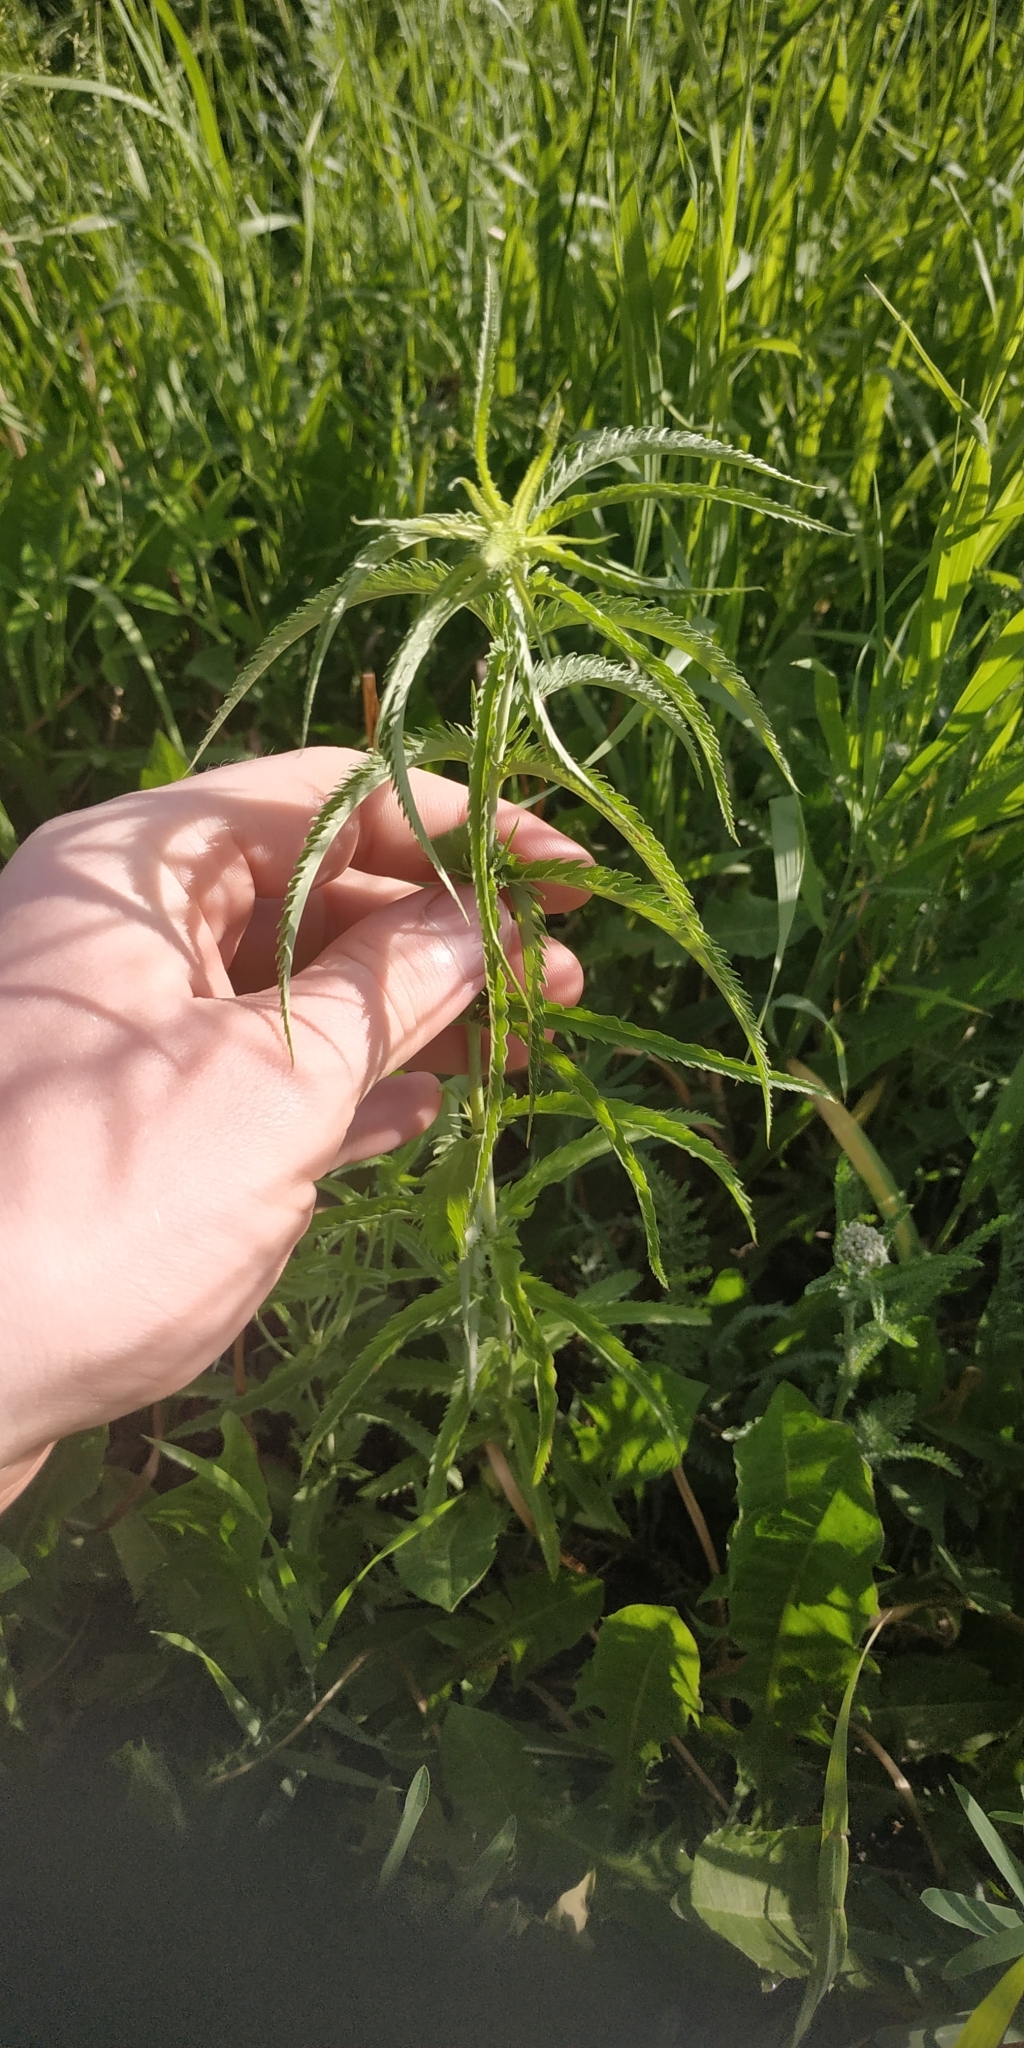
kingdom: Plantae
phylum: Tracheophyta
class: Magnoliopsida
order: Lamiales
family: Plantaginaceae
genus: Veronica
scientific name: Veronica longifolia
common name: Garden speedwell
